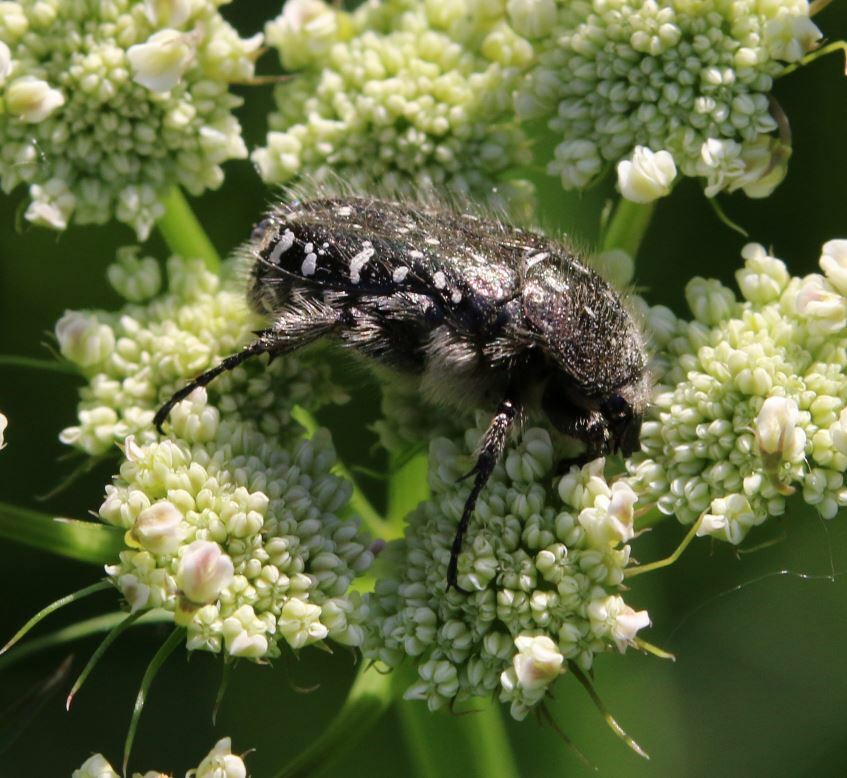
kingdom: Animalia
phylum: Arthropoda
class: Insecta
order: Coleoptera
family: Scarabaeidae
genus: Oxythyrea
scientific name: Oxythyrea funesta
